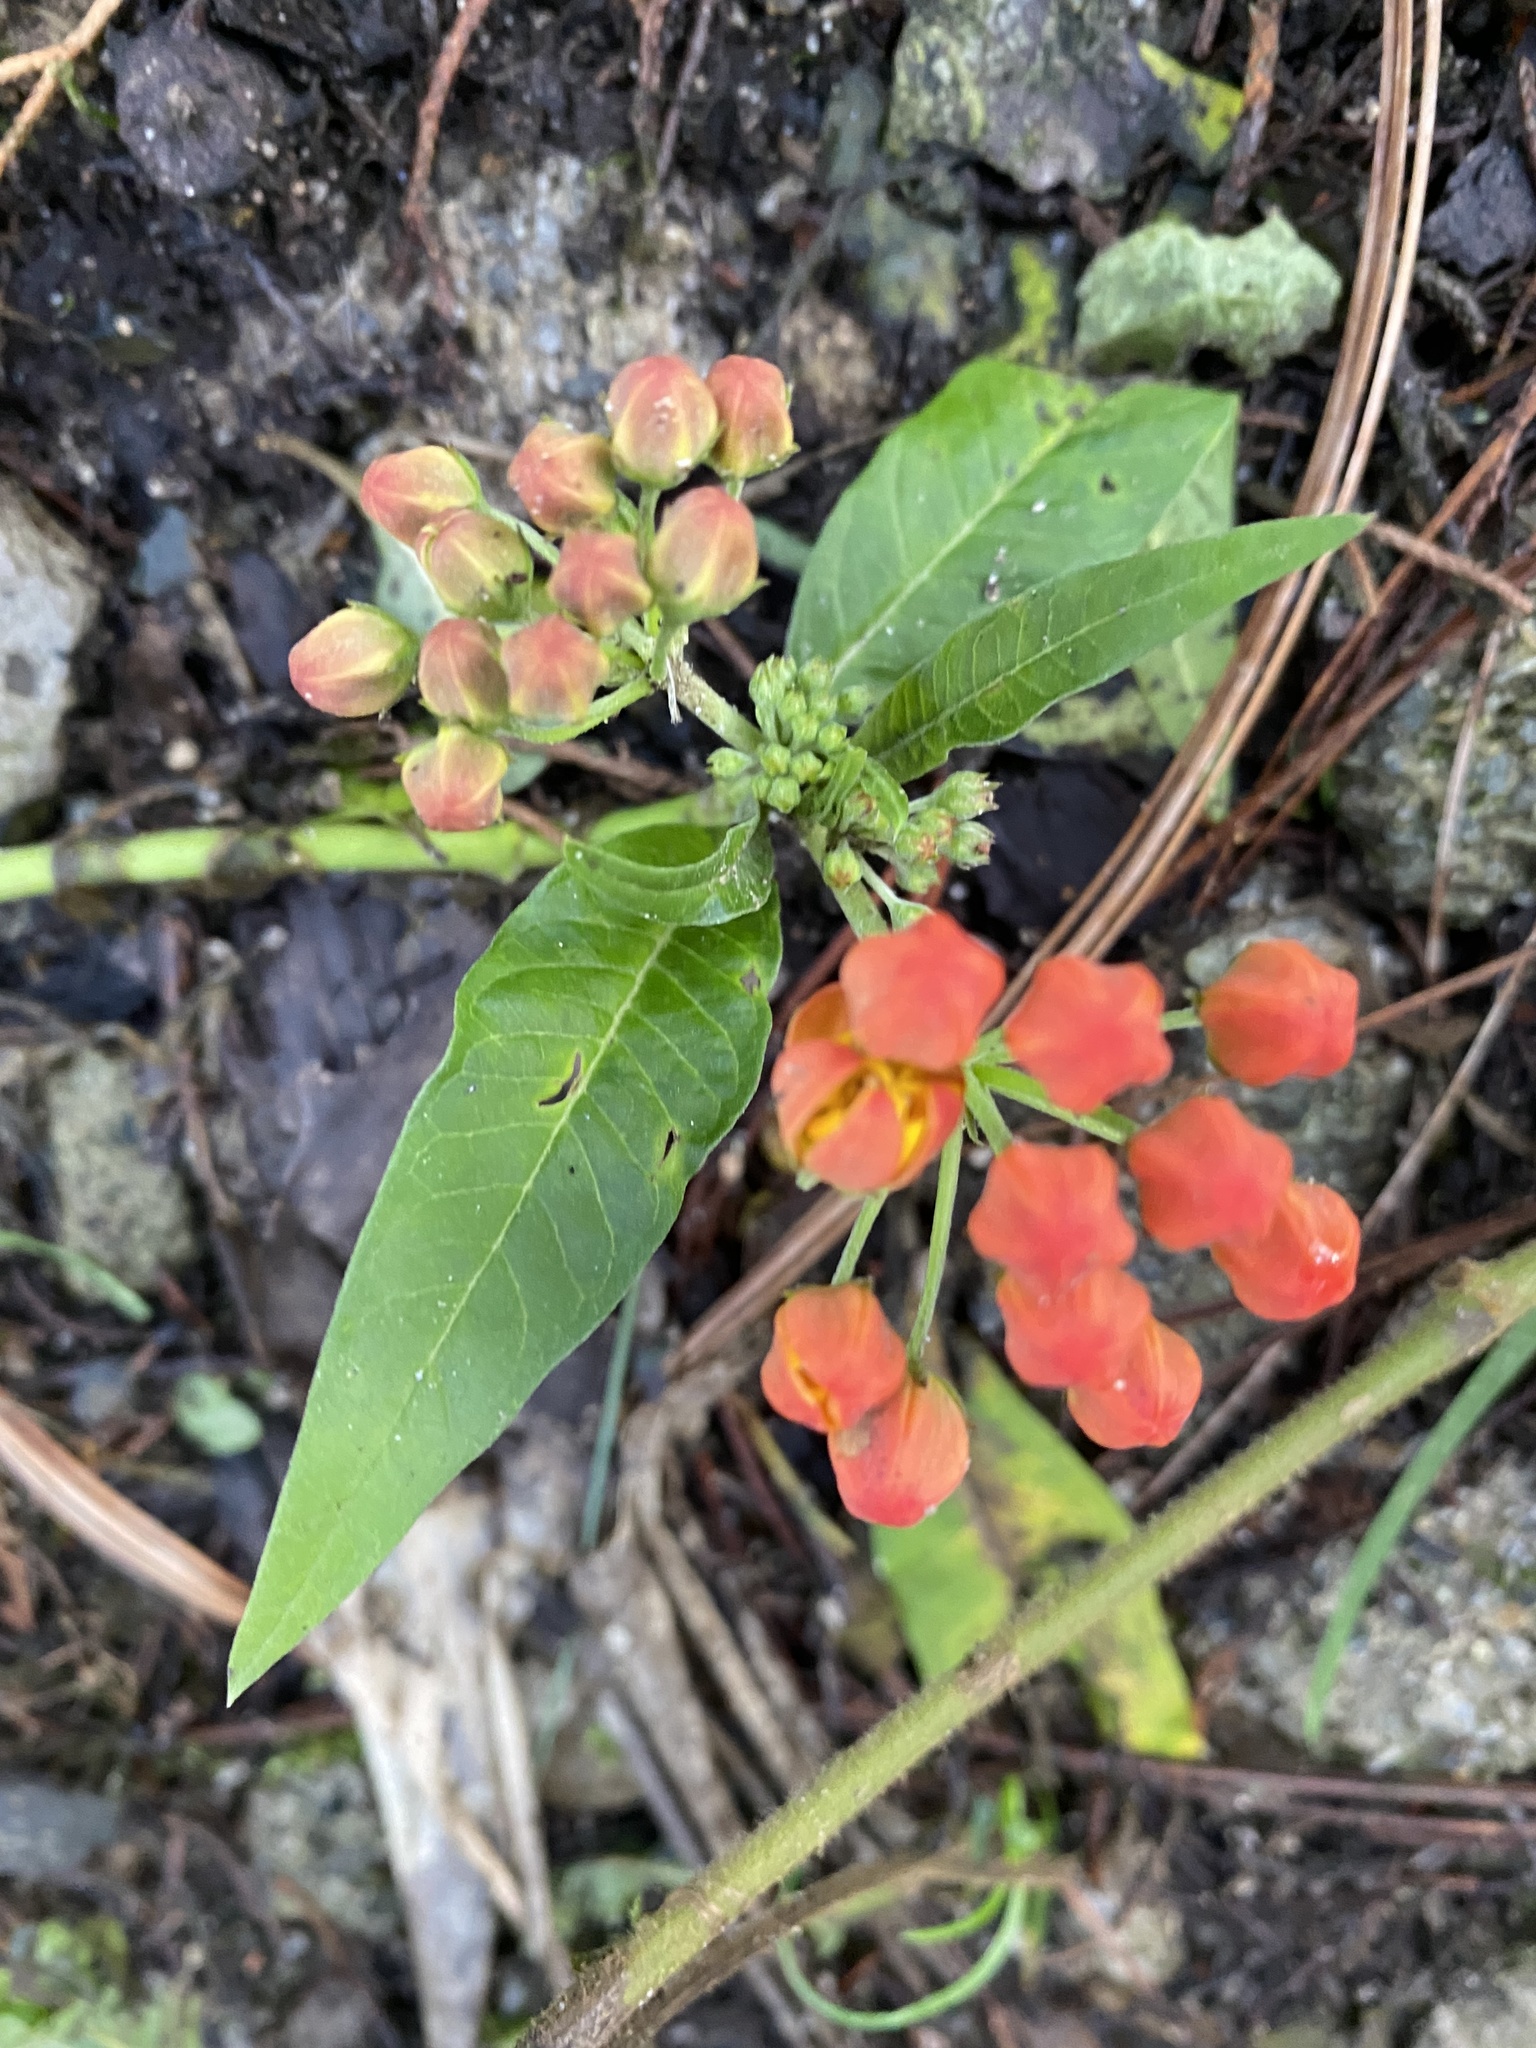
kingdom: Plantae
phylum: Tracheophyta
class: Magnoliopsida
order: Gentianales
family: Apocynaceae
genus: Asclepias
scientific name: Asclepias curassavica
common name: Bloodflower
